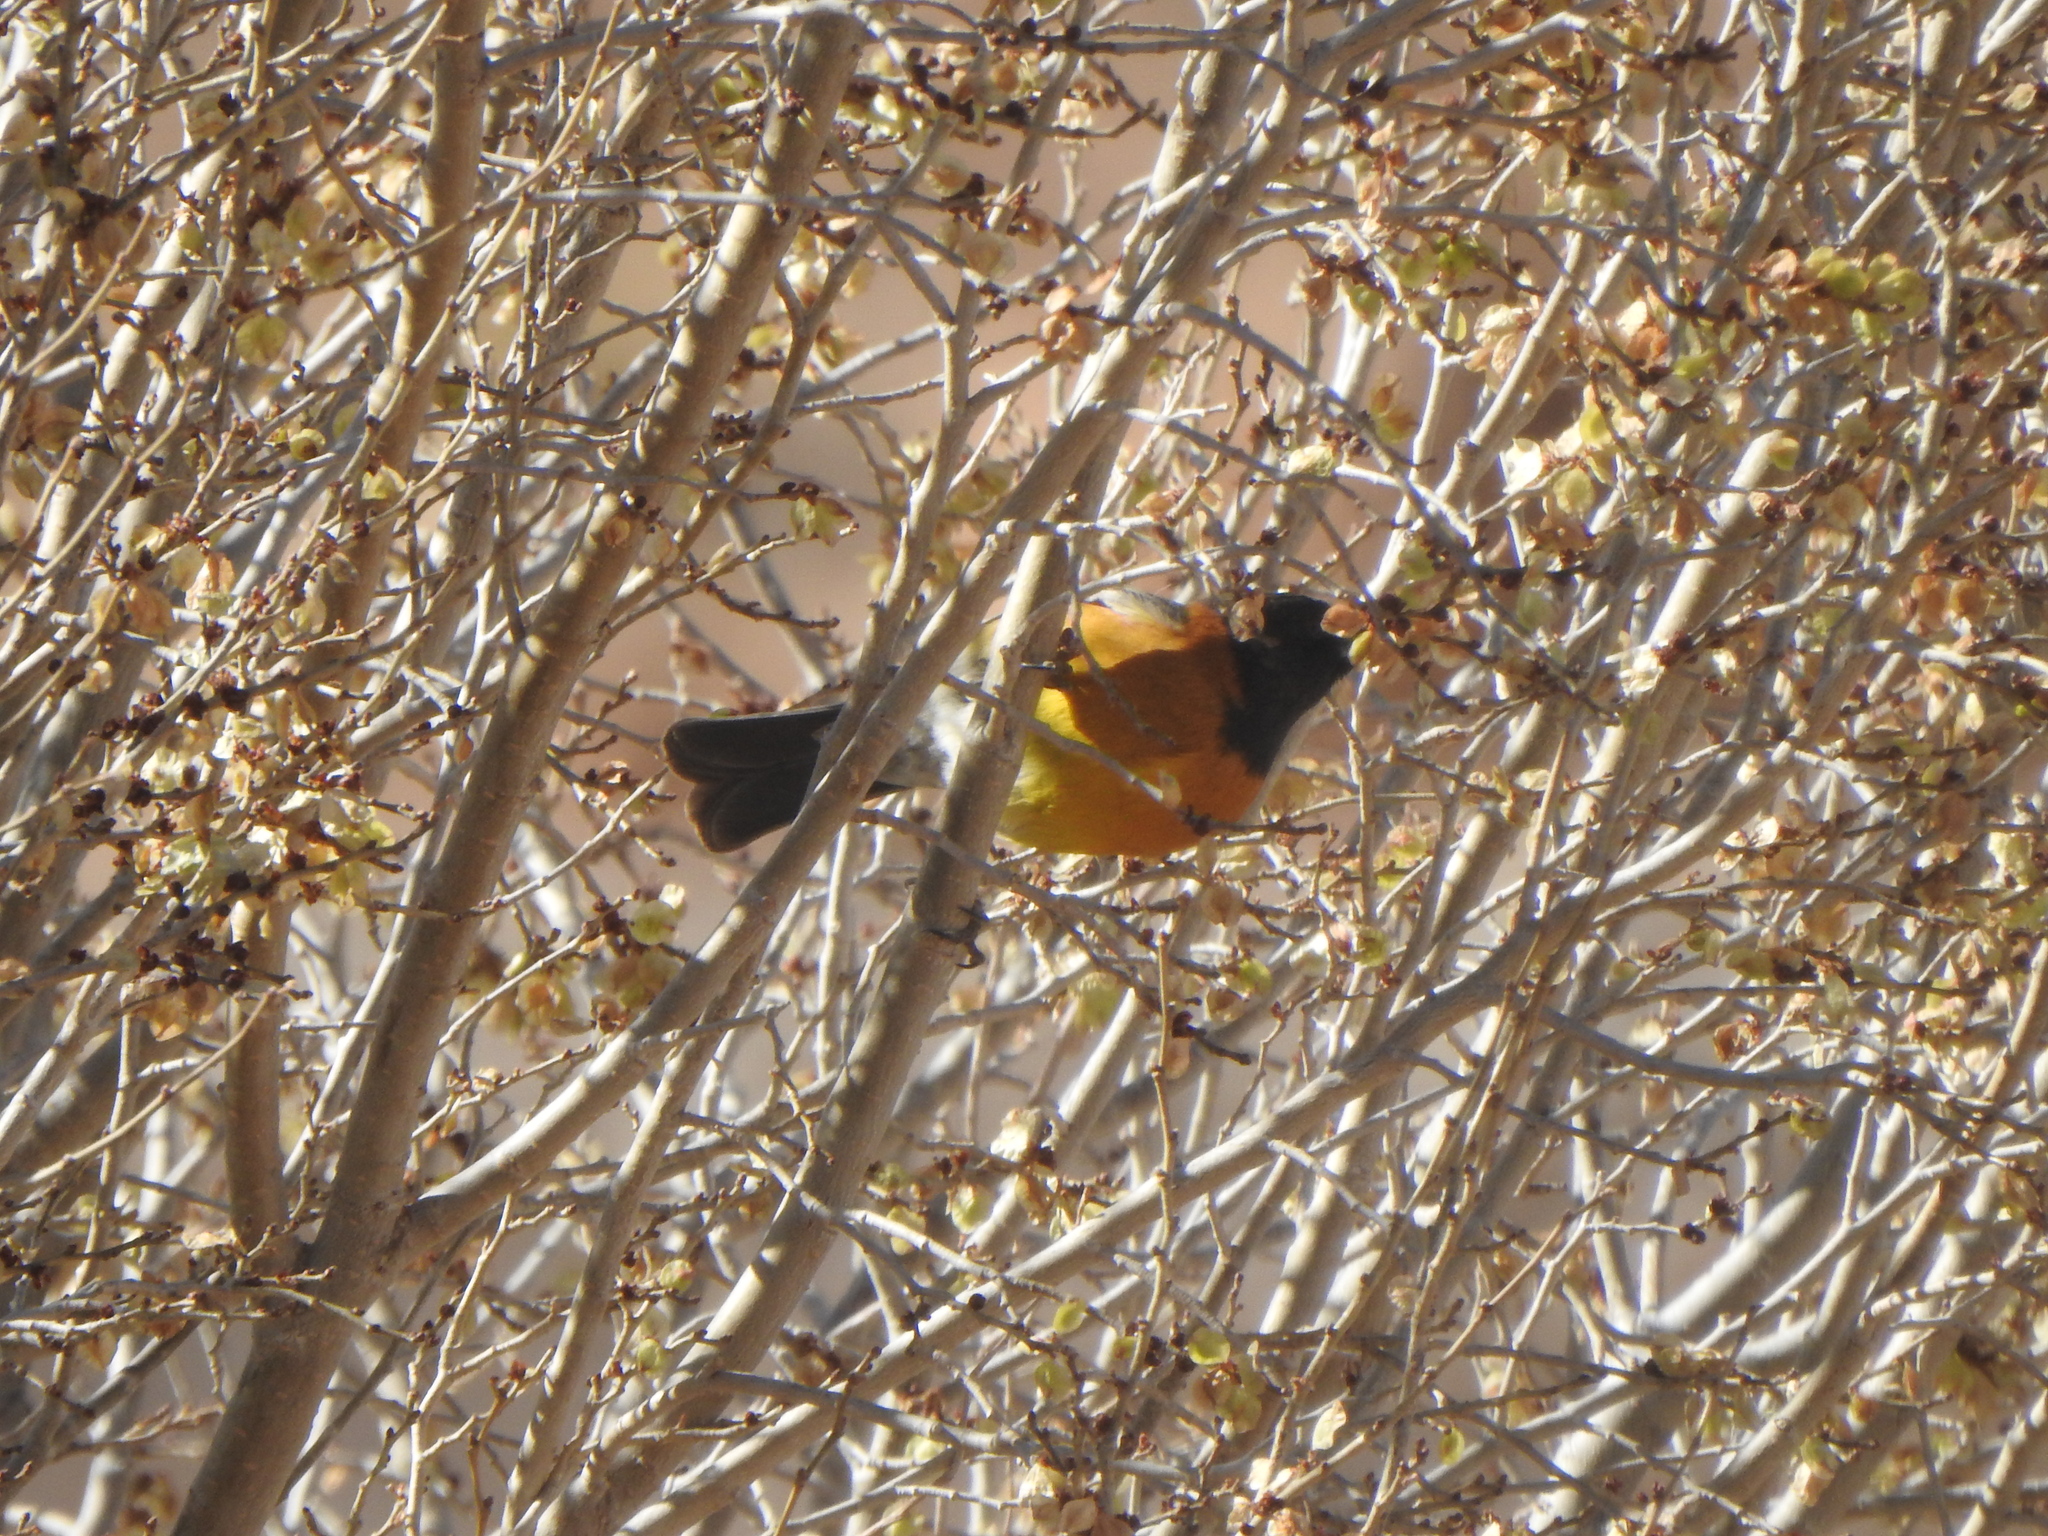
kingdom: Animalia
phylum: Chordata
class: Aves
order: Passeriformes
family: Thraupidae
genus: Phrygilus
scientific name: Phrygilus atriceps
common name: Black-hooded sierra finch
